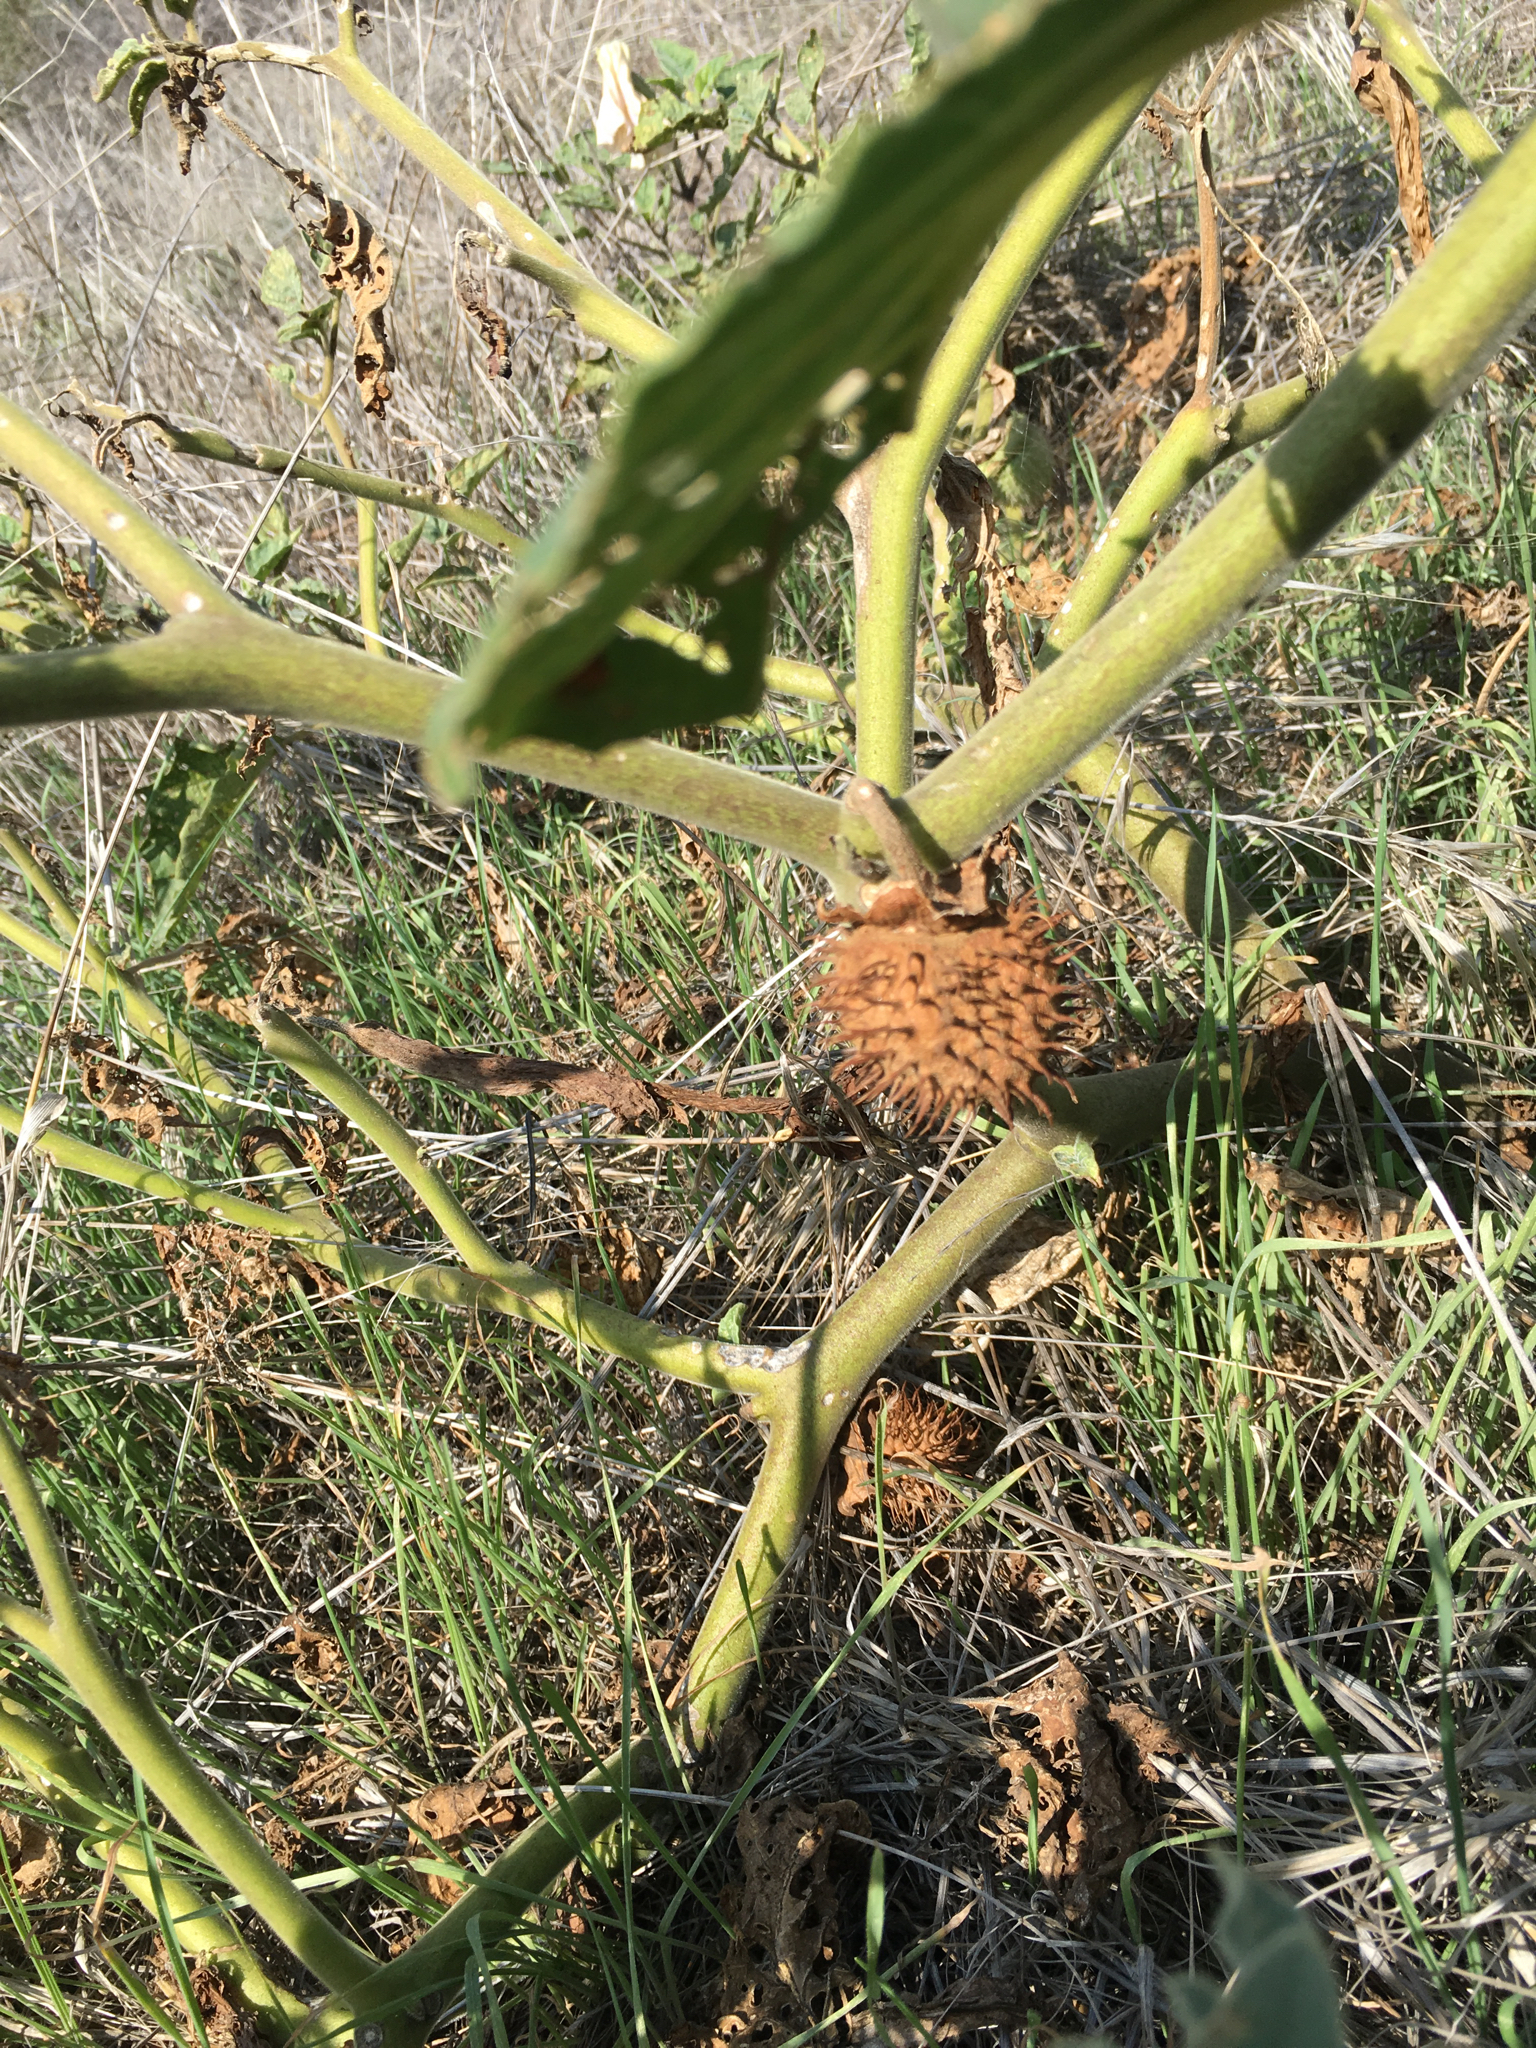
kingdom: Plantae
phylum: Tracheophyta
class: Magnoliopsida
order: Solanales
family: Solanaceae
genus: Datura
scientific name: Datura wrightii
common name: Sacred thorn-apple
